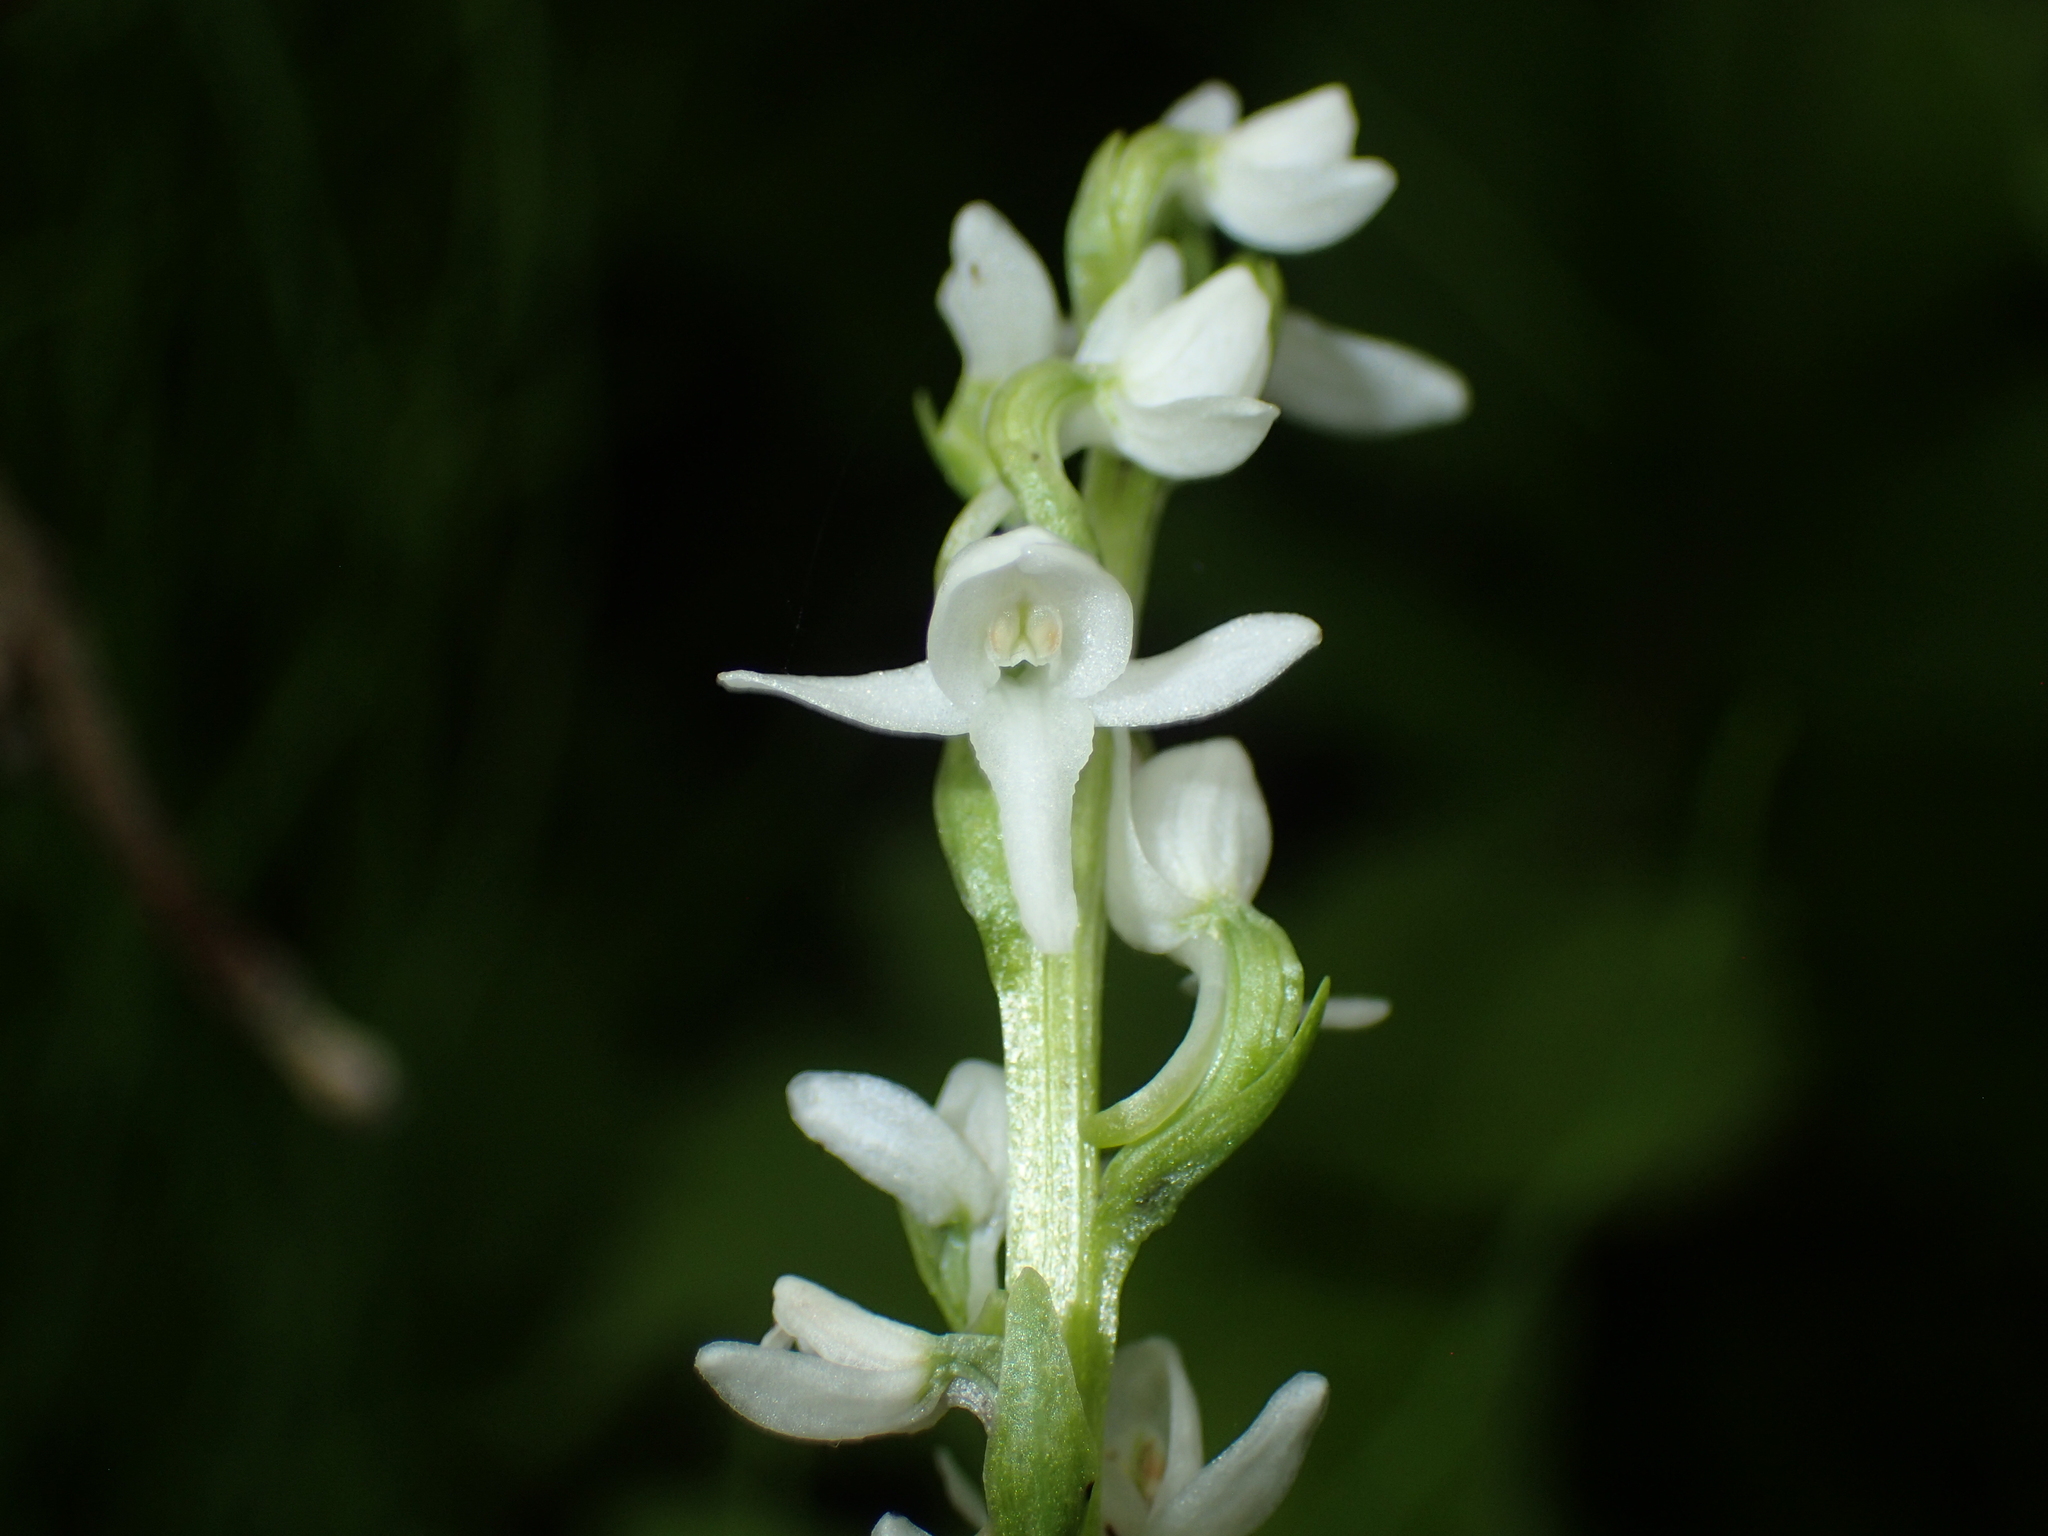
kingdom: Plantae
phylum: Tracheophyta
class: Liliopsida
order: Asparagales
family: Orchidaceae
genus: Platanthera
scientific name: Platanthera dilatata
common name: Bog candles
